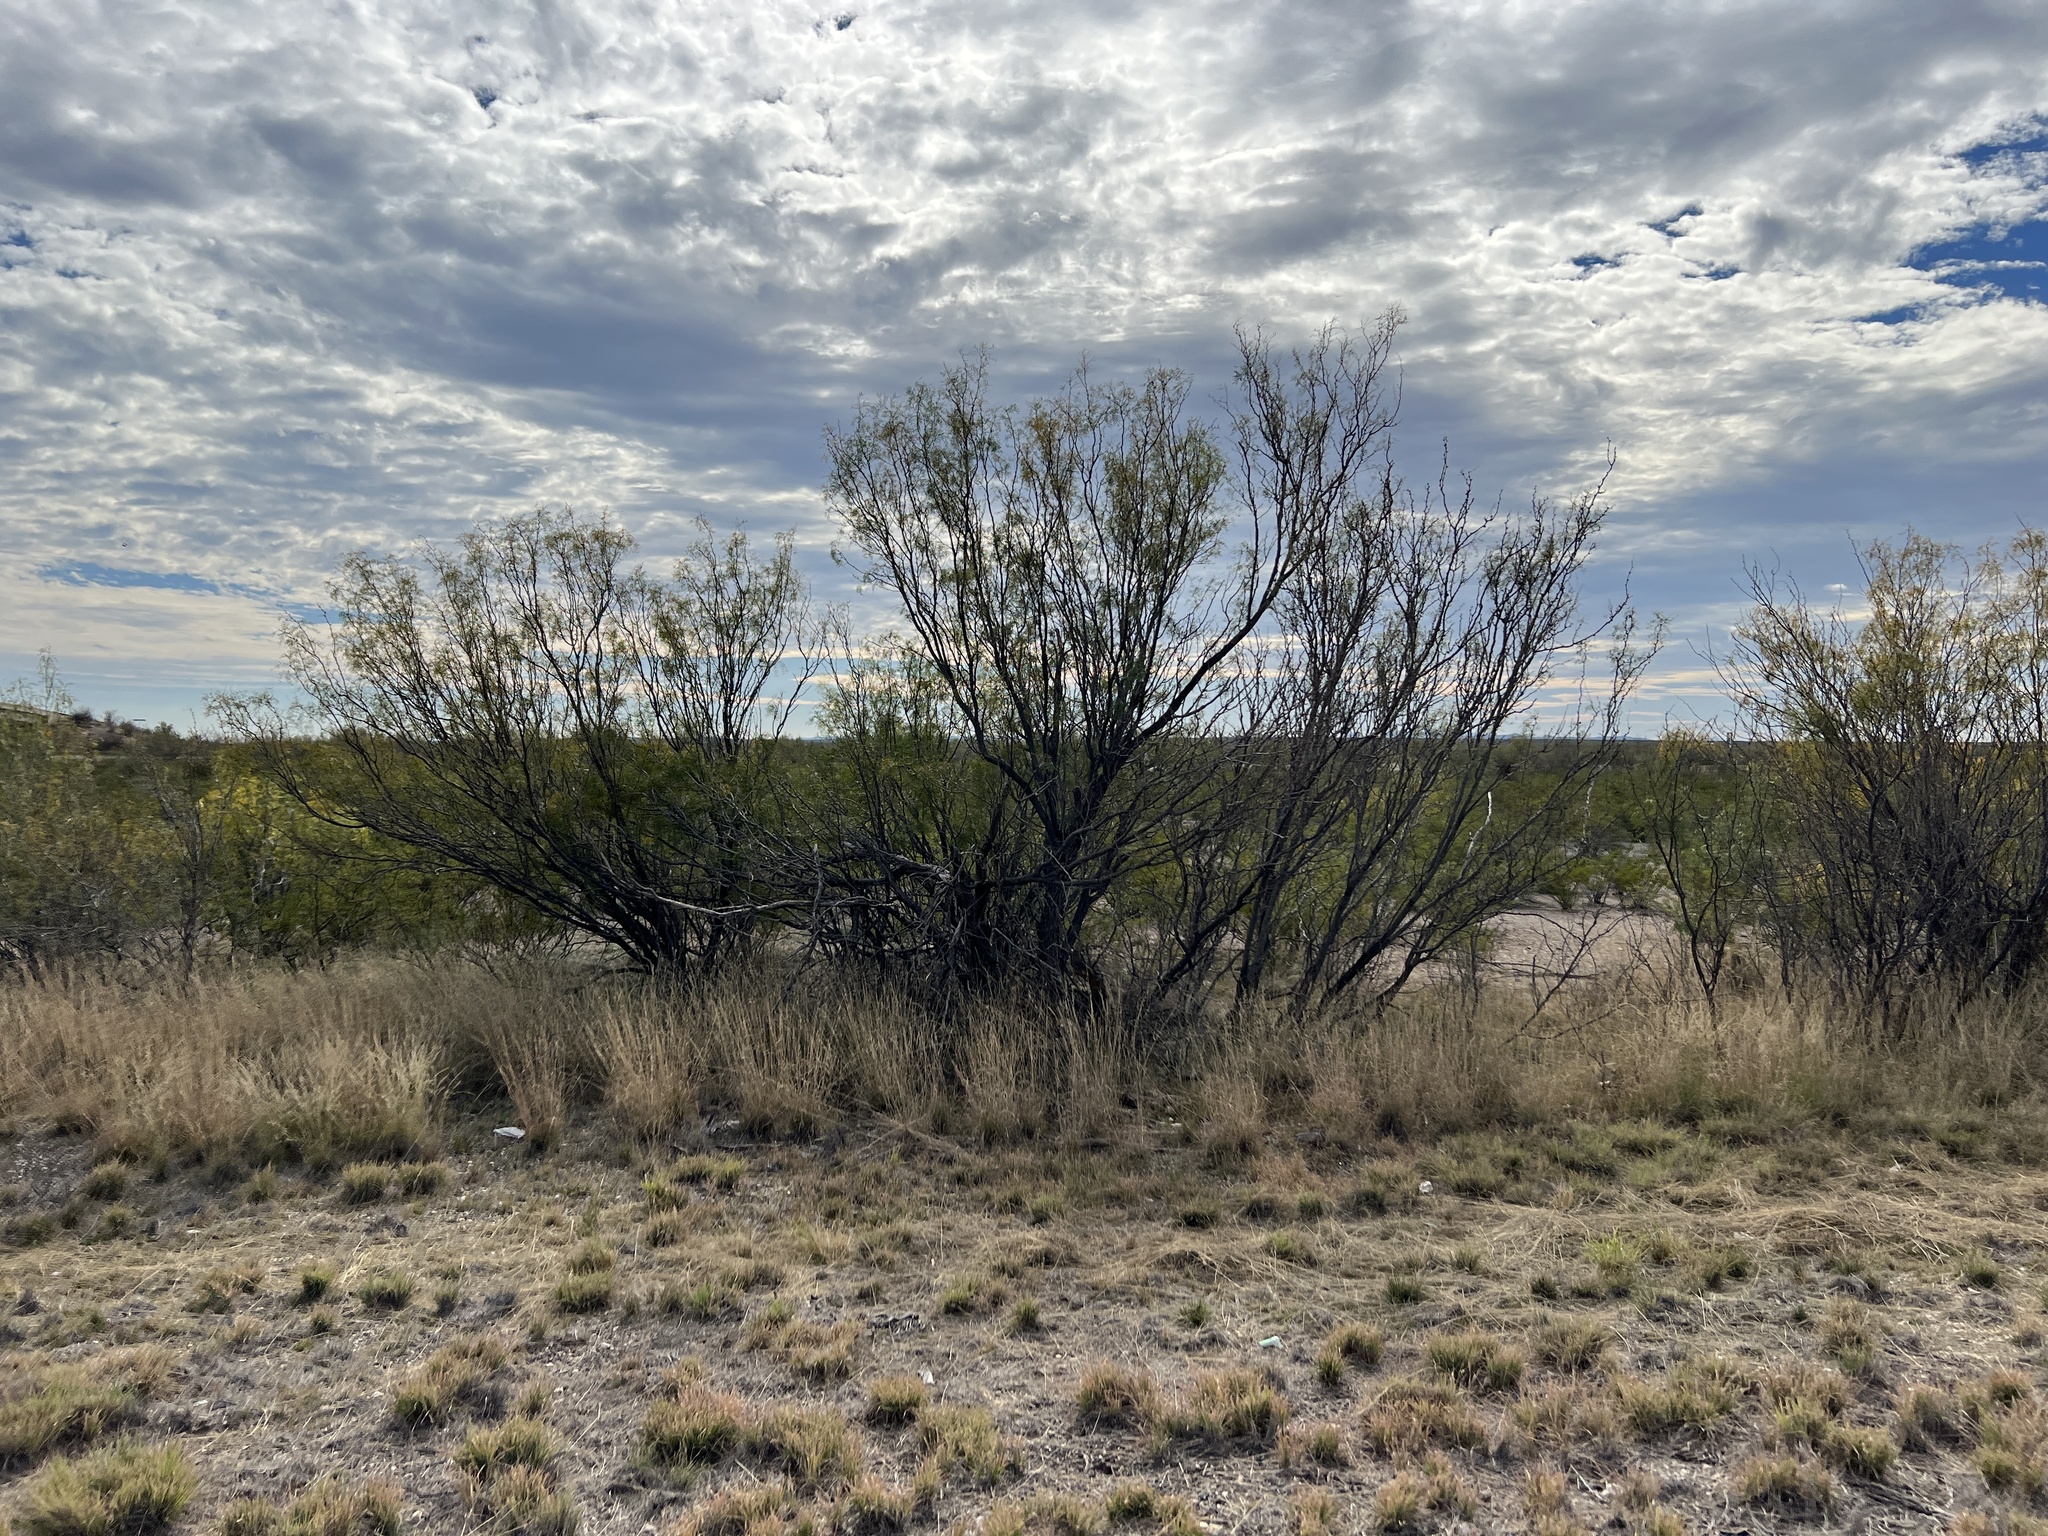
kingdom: Plantae
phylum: Tracheophyta
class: Magnoliopsida
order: Fabales
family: Fabaceae
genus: Prosopis
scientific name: Prosopis glandulosa
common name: Honey mesquite
